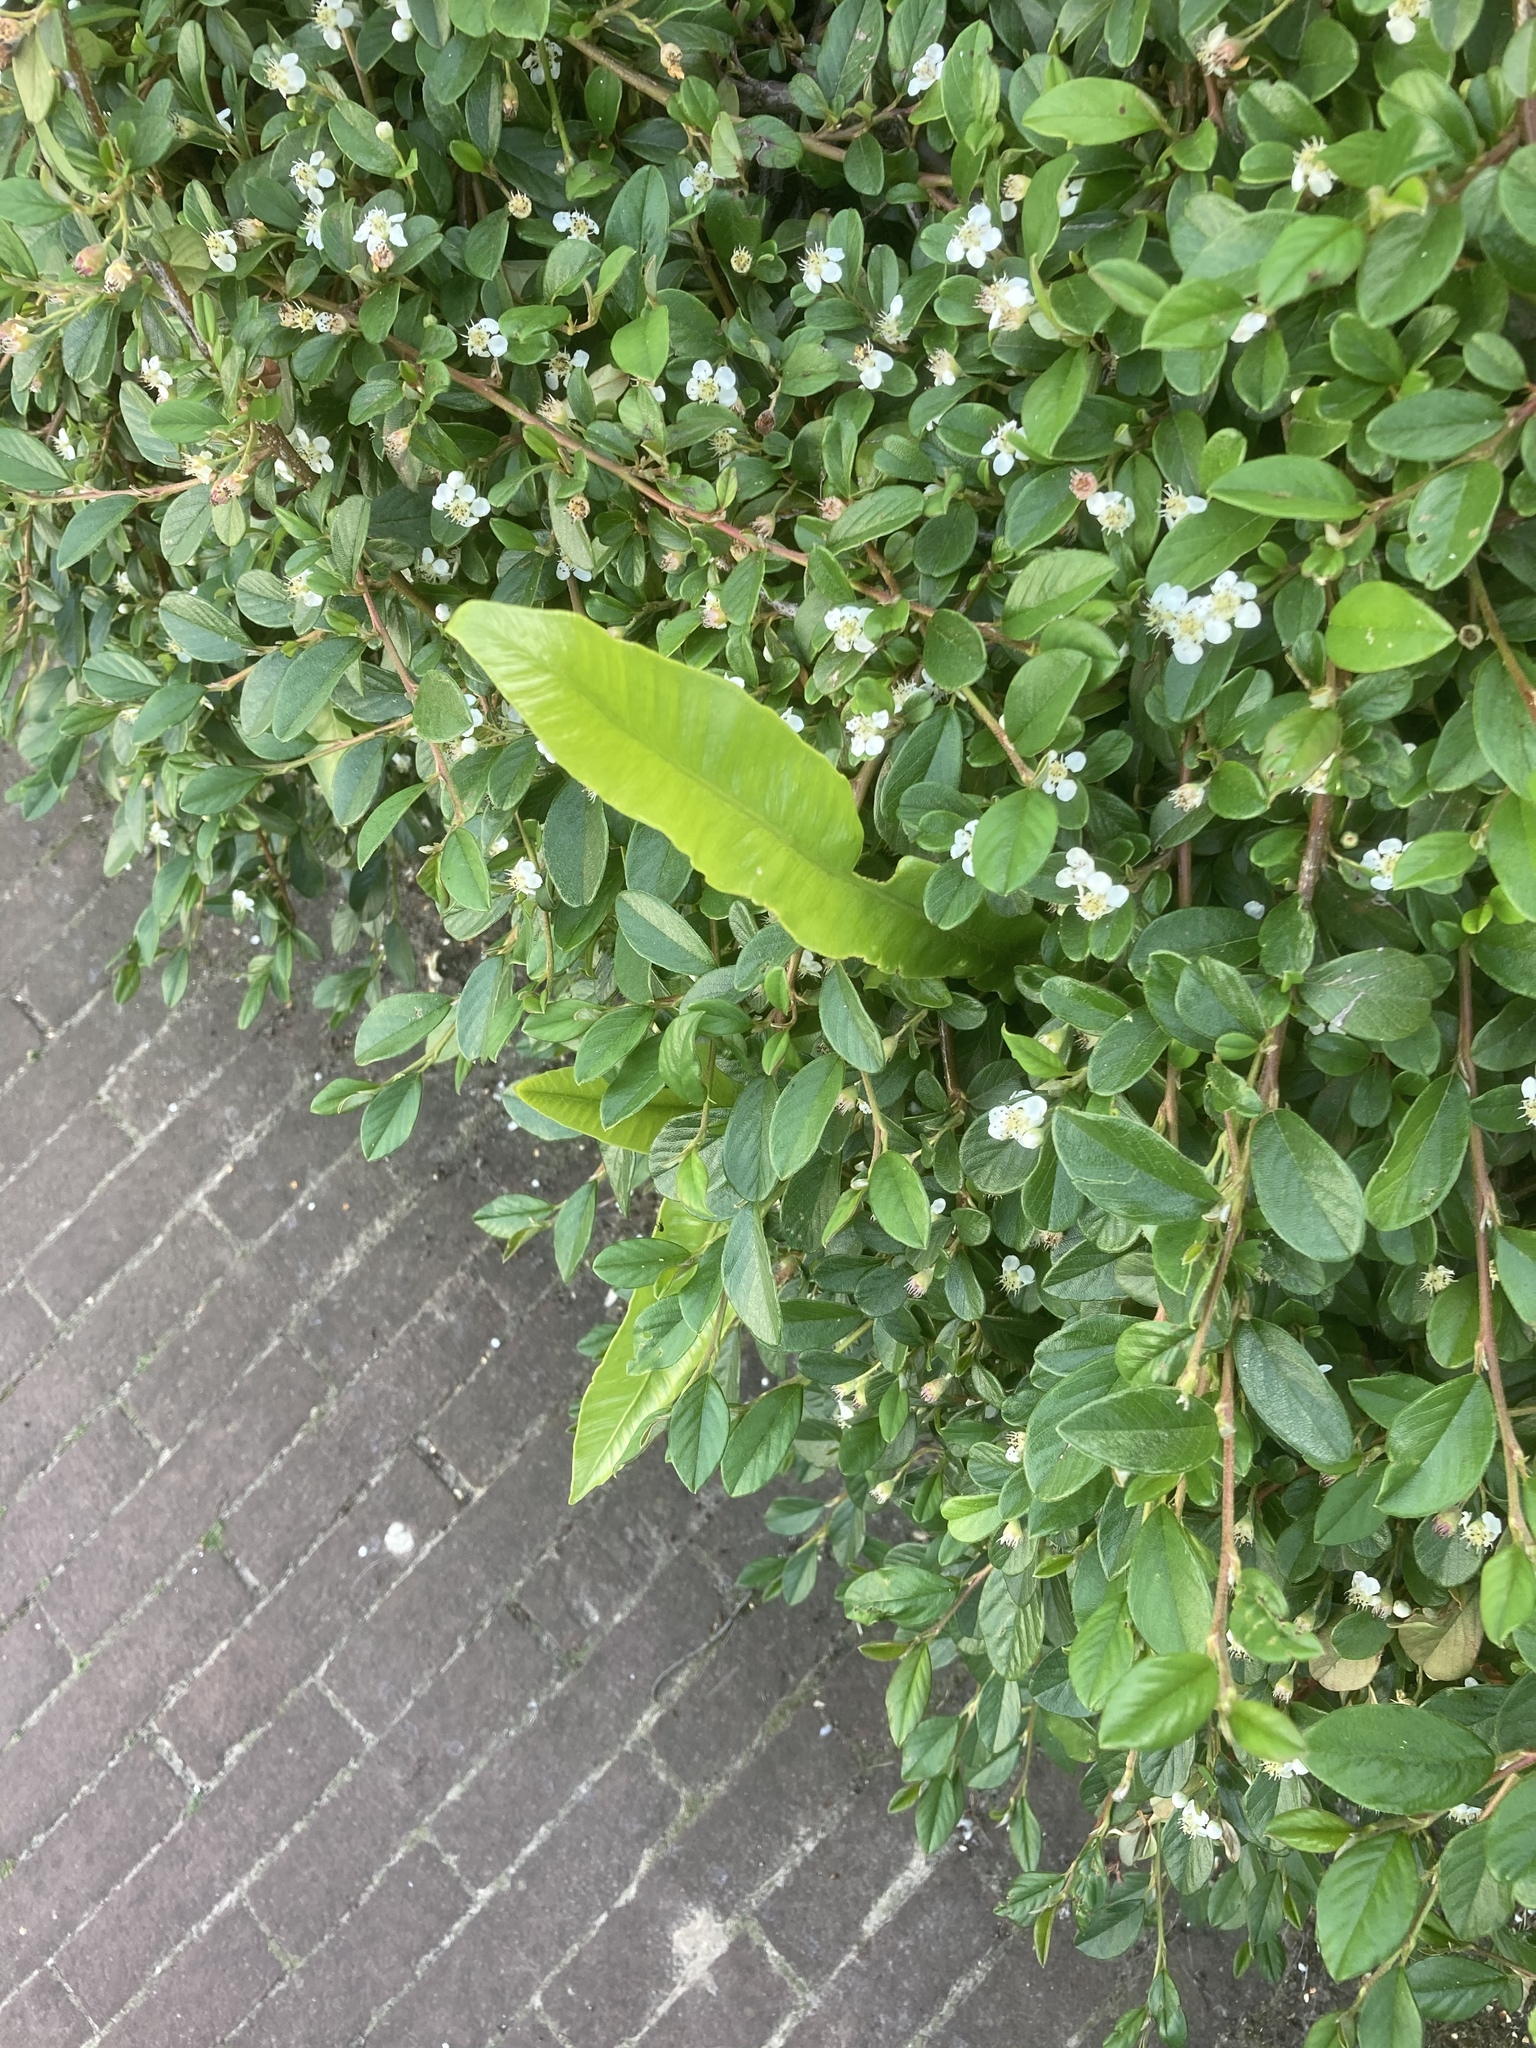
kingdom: Plantae
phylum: Tracheophyta
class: Polypodiopsida
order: Polypodiales
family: Aspleniaceae
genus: Asplenium
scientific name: Asplenium scolopendrium
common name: Hart's-tongue fern
